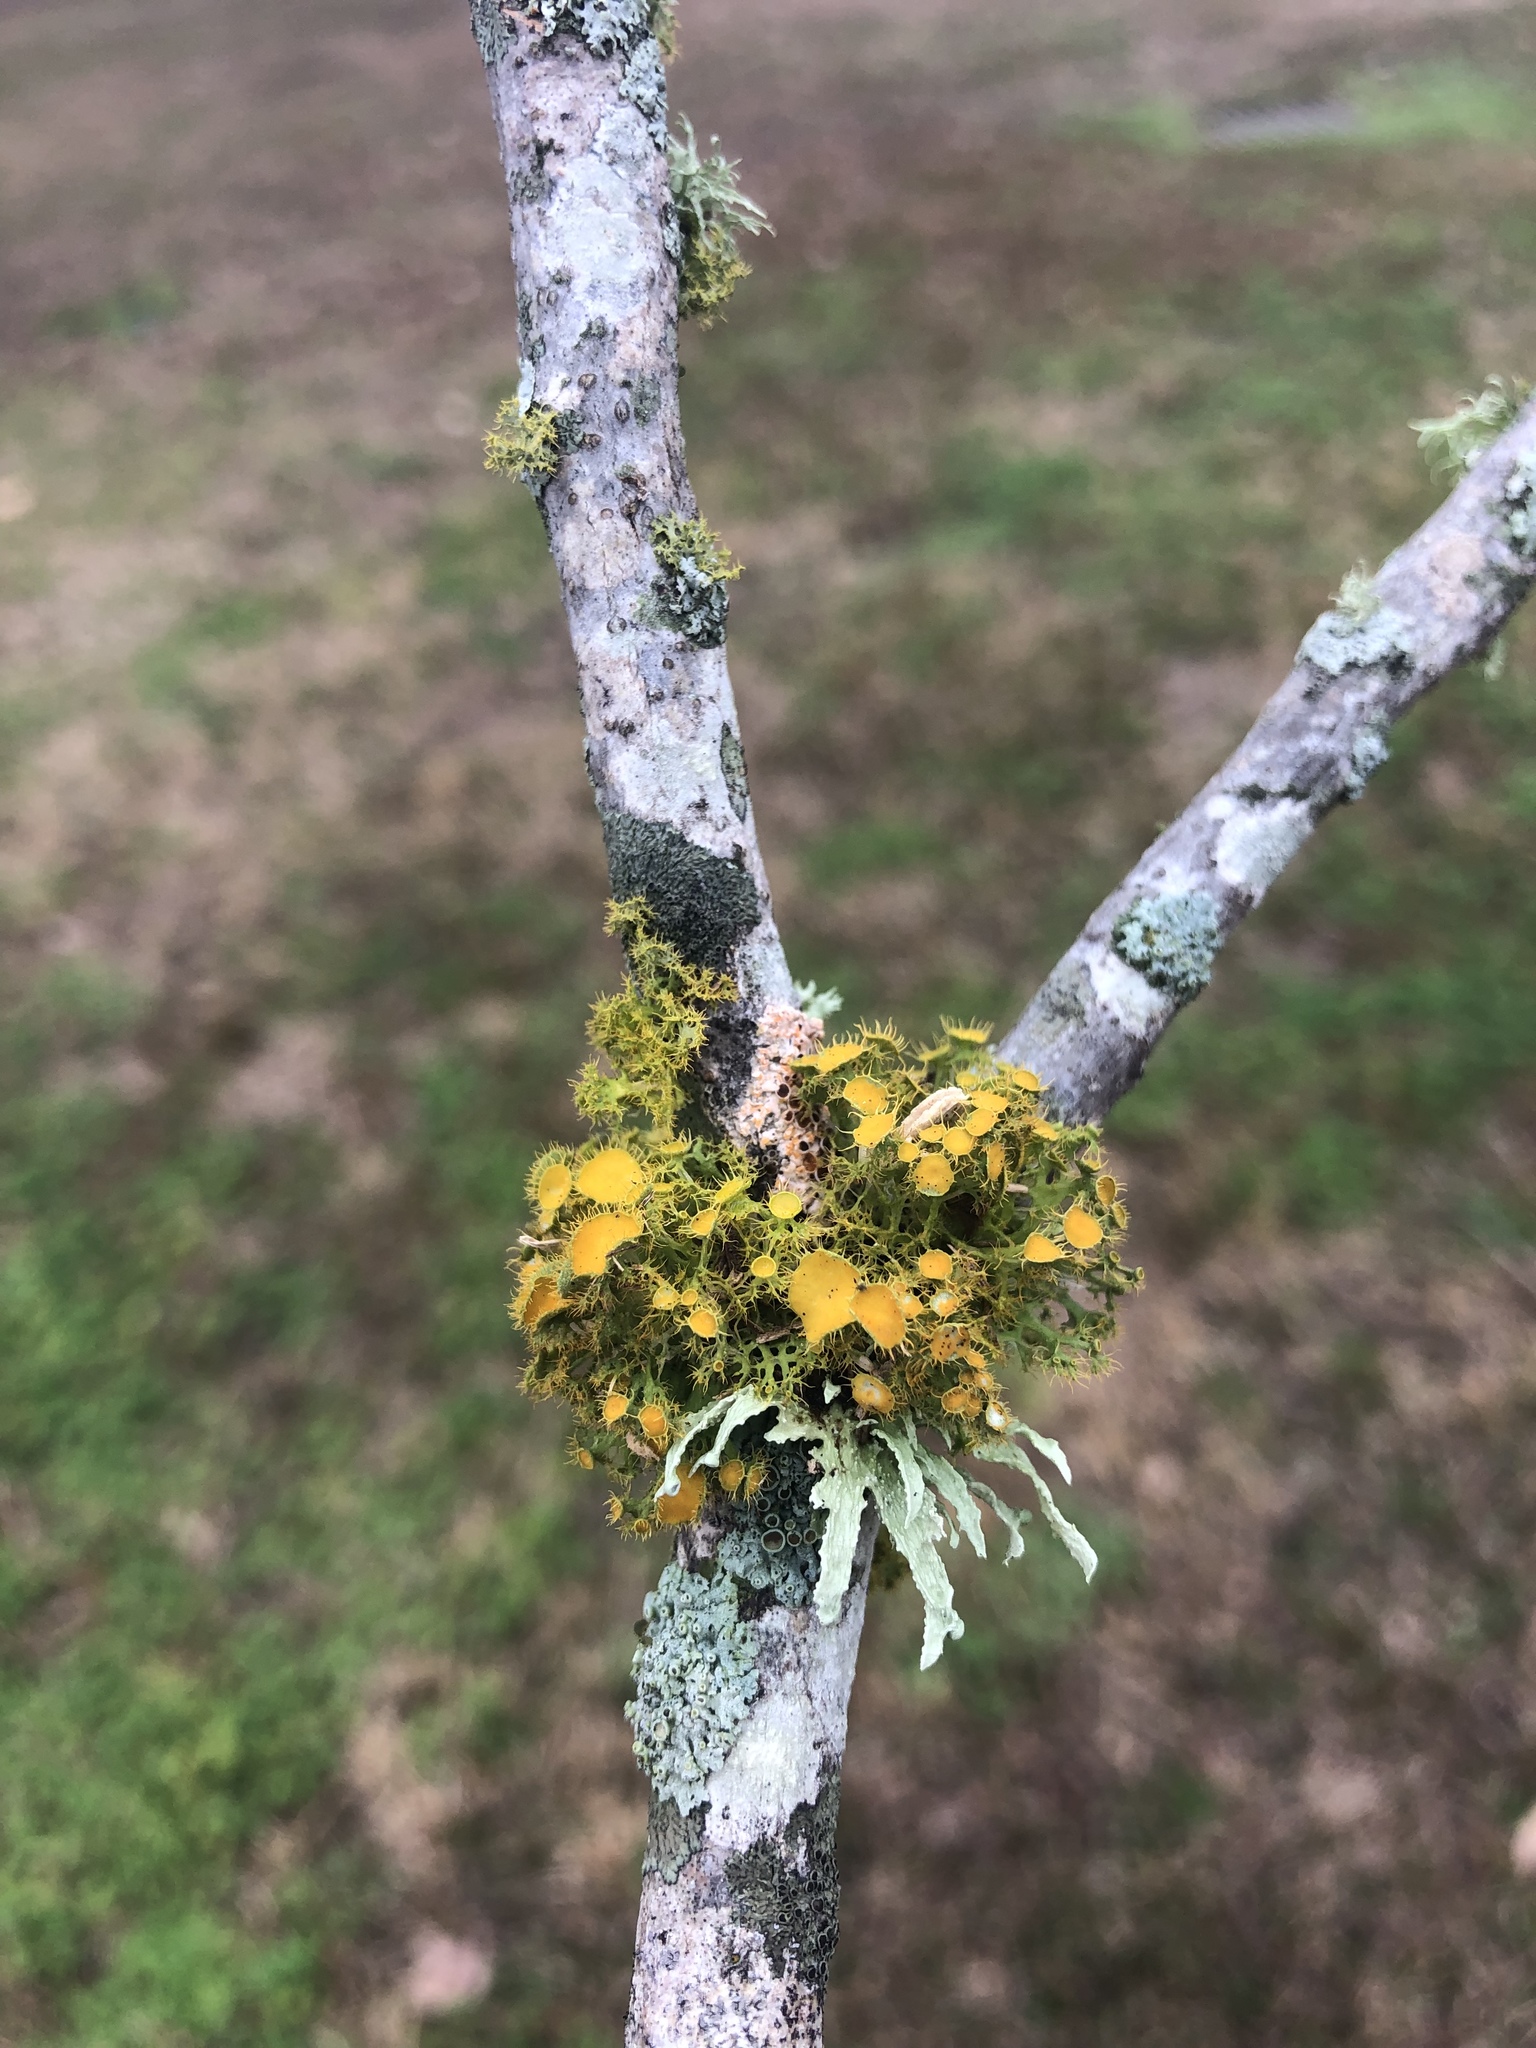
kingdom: Fungi
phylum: Ascomycota
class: Lecanoromycetes
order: Teloschistales
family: Teloschistaceae
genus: Niorma
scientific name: Niorma chrysophthalma
